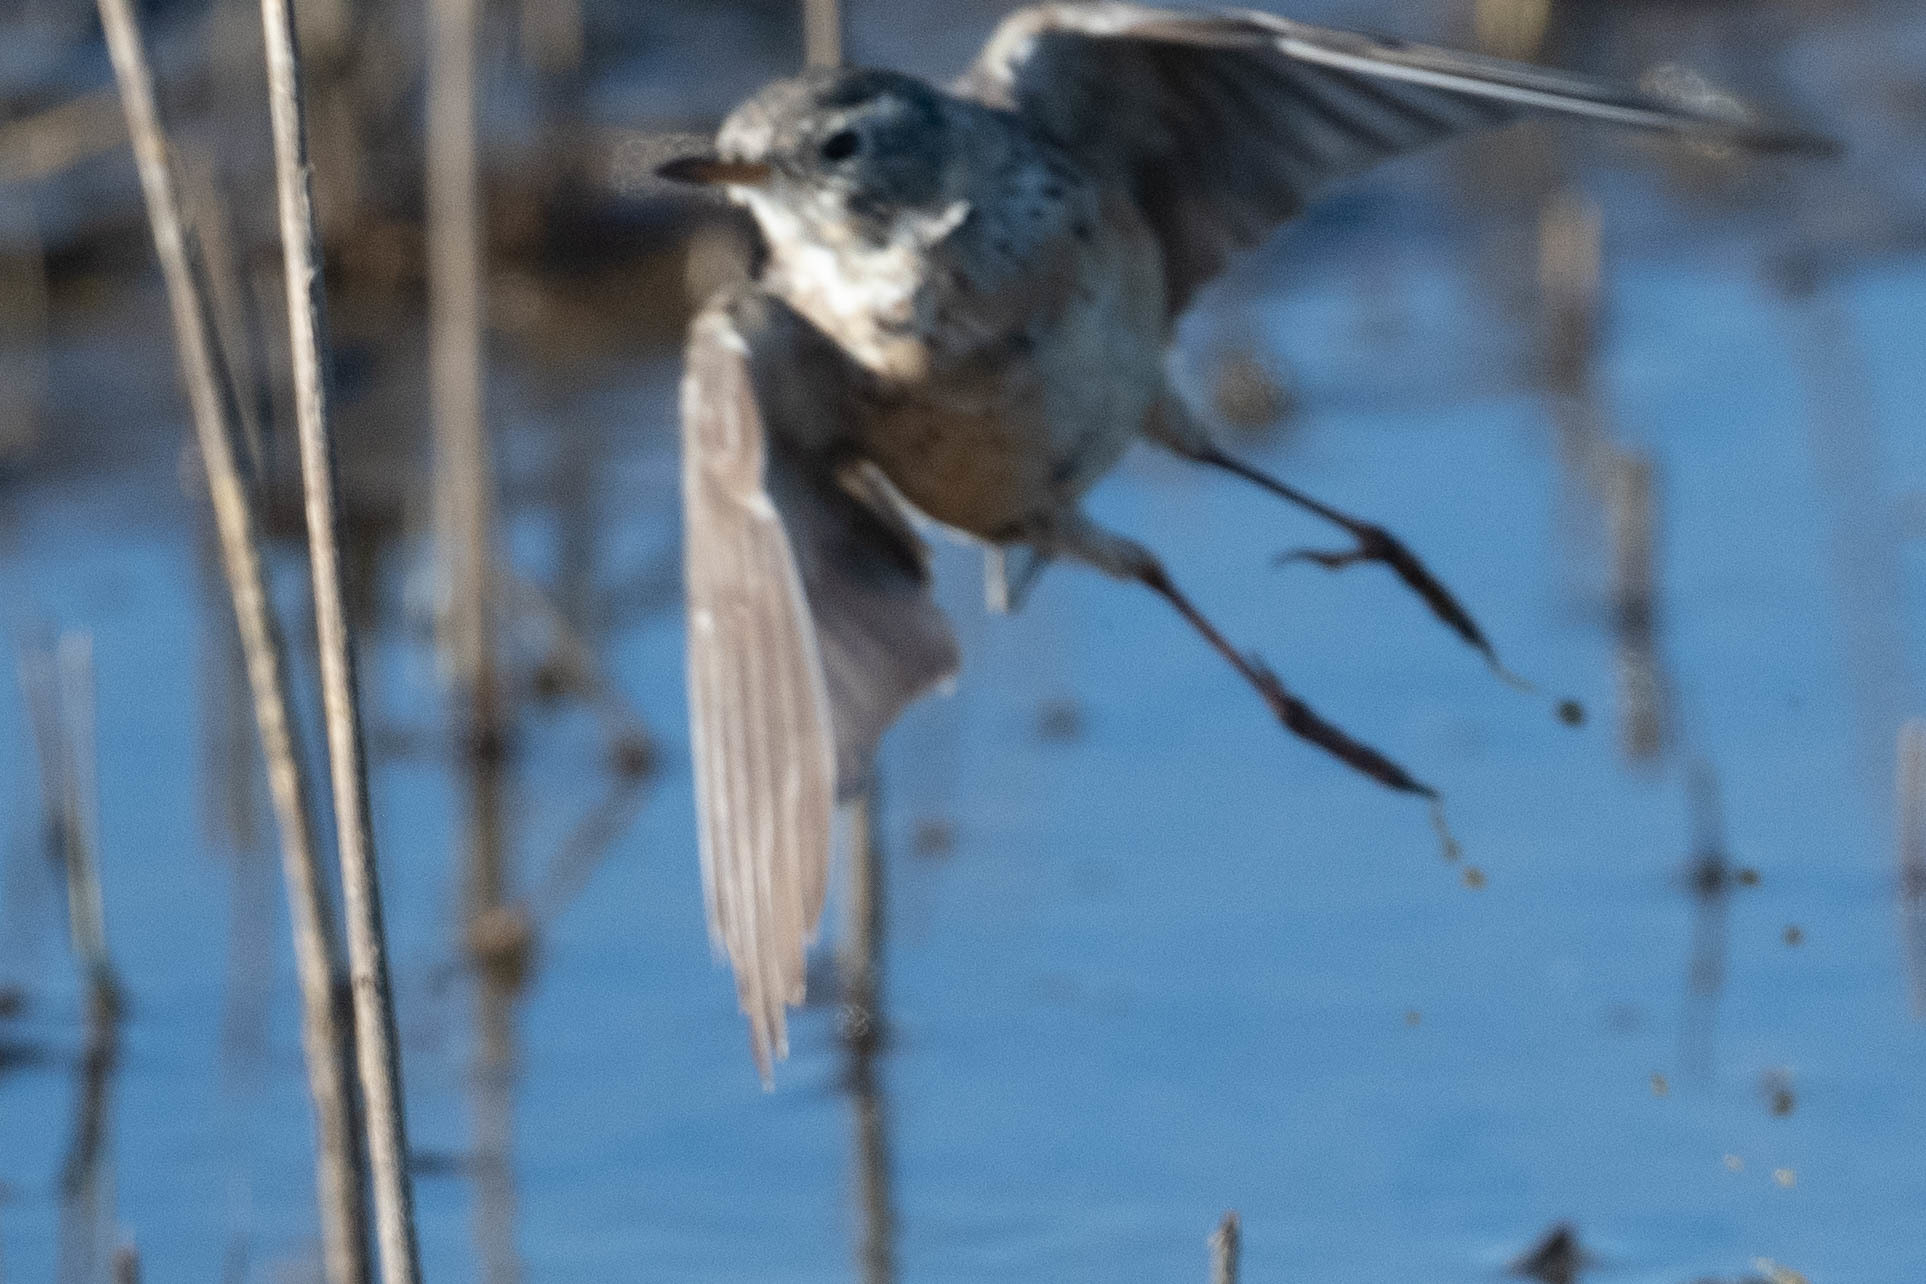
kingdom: Animalia
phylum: Chordata
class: Aves
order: Passeriformes
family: Motacillidae
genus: Anthus
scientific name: Anthus rubescens
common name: Buff-bellied pipit
